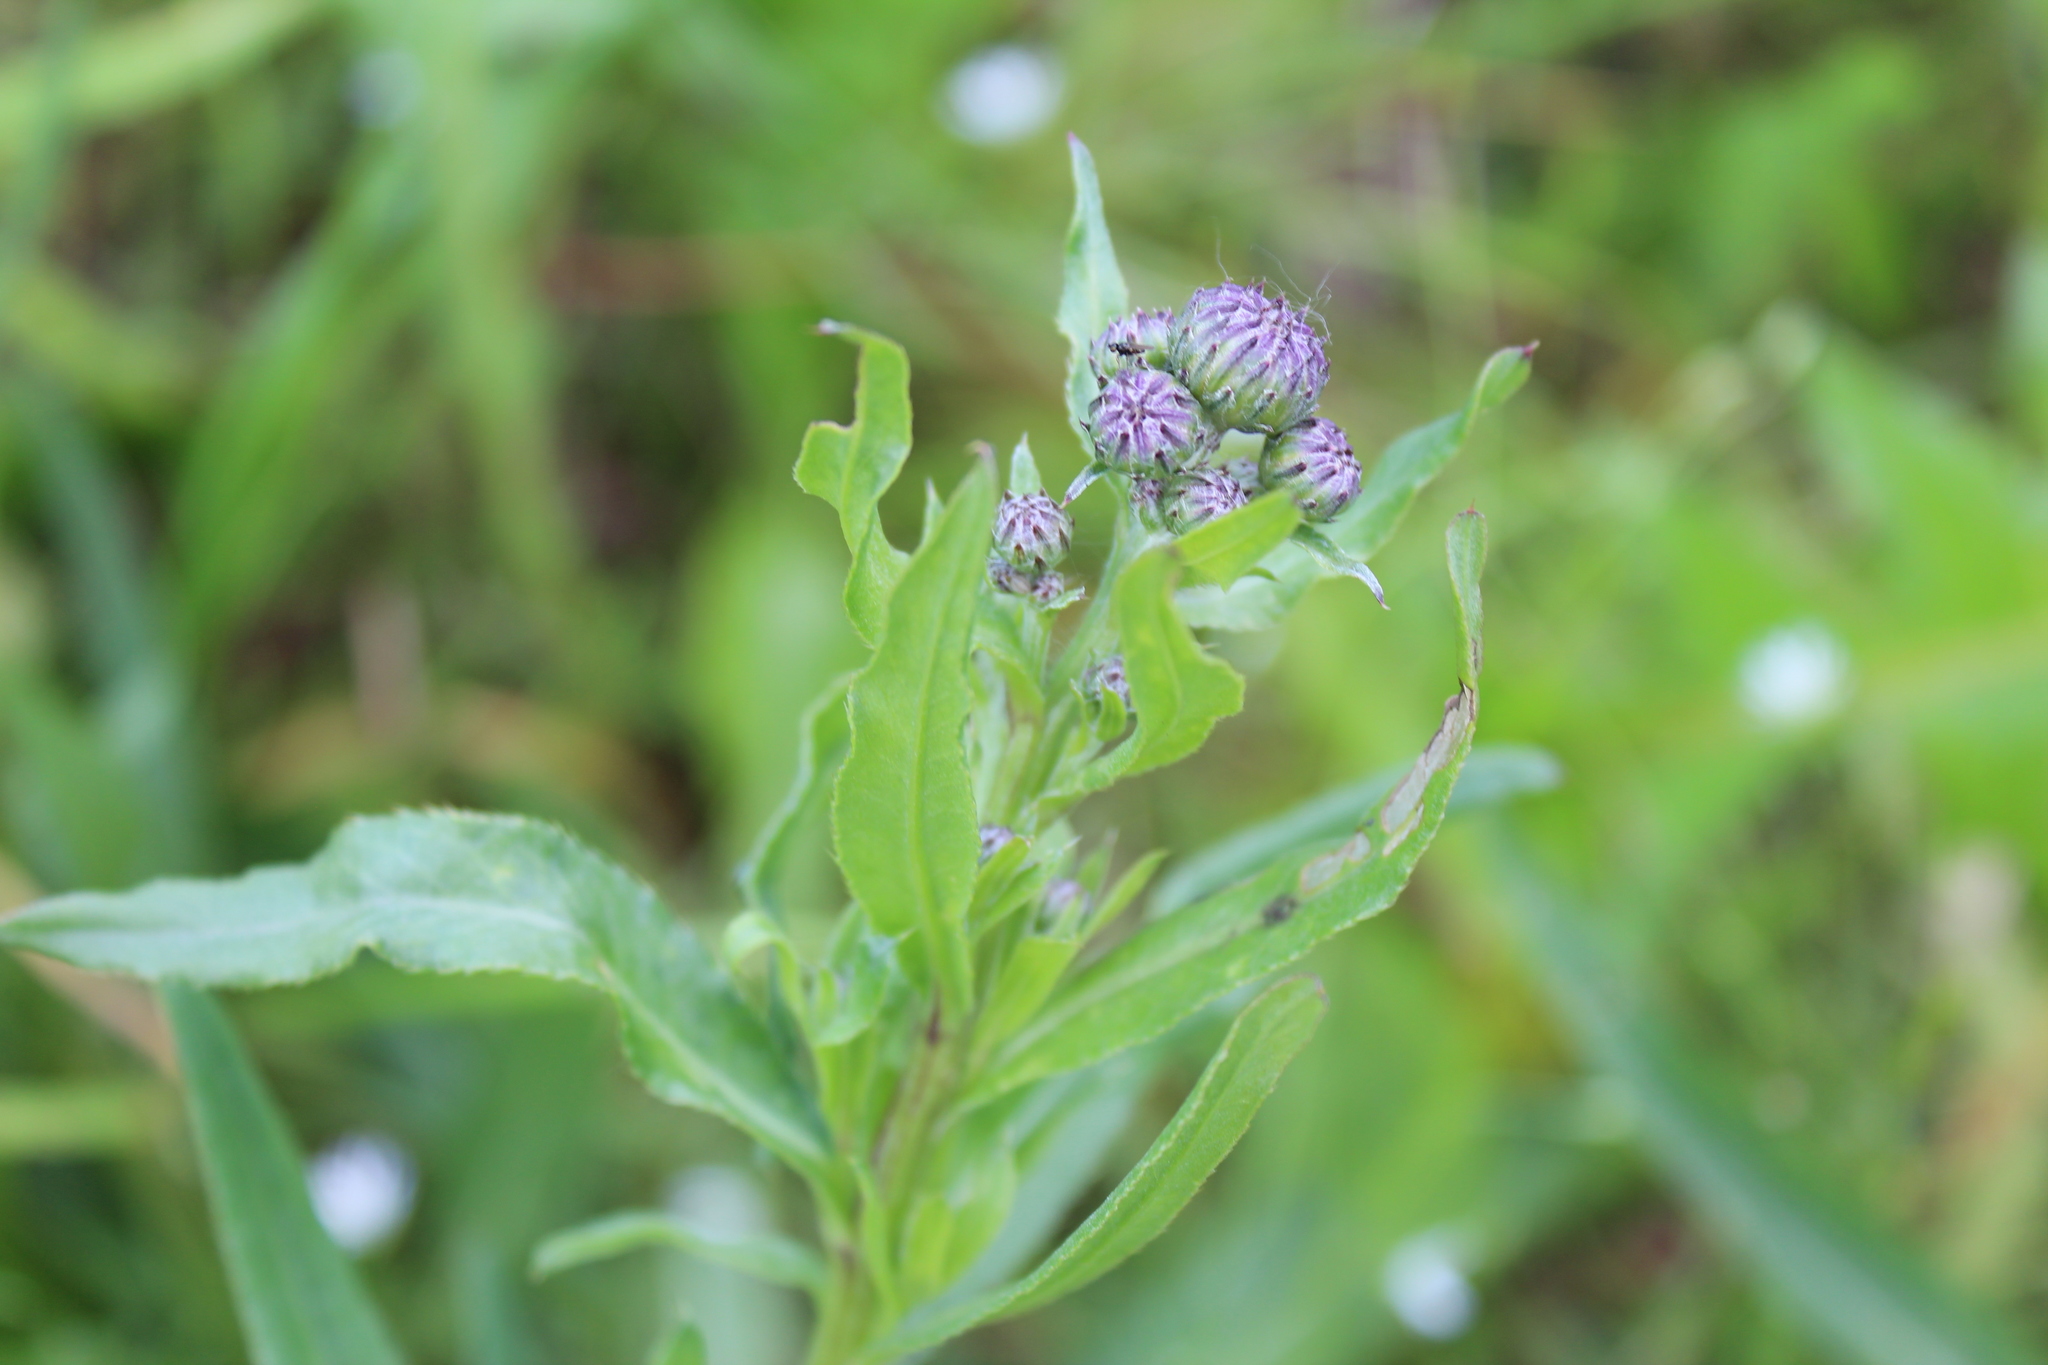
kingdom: Plantae
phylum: Tracheophyta
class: Magnoliopsida
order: Asterales
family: Asteraceae
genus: Cirsium
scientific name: Cirsium arvense
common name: Creeping thistle
